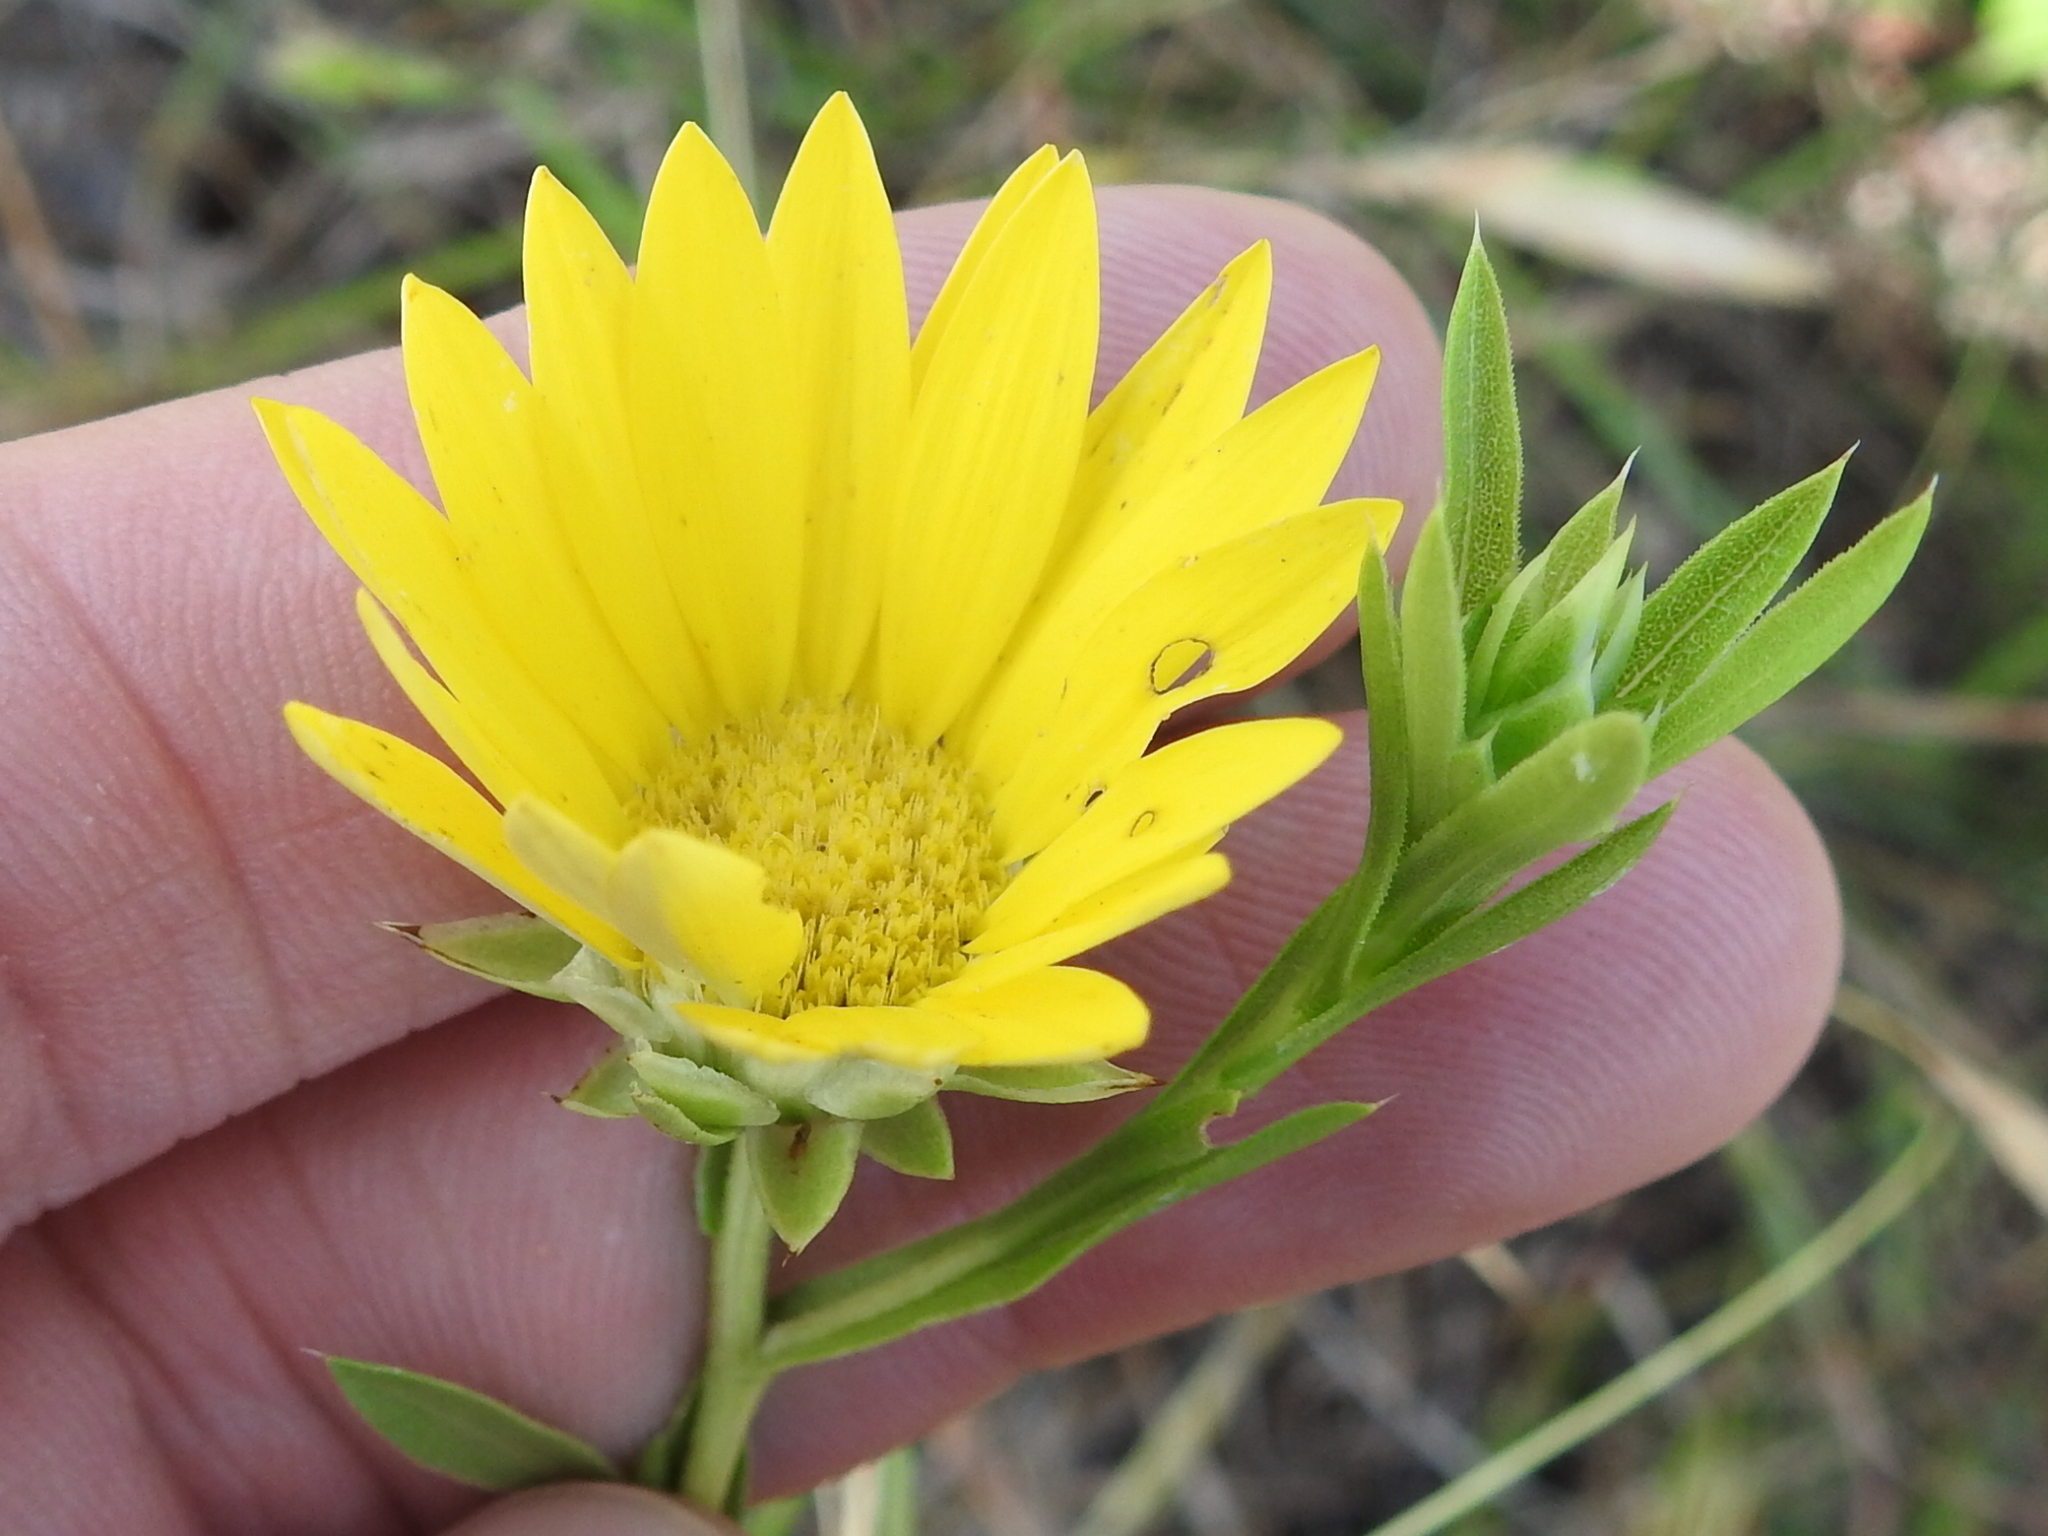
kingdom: Plantae
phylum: Tracheophyta
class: Magnoliopsida
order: Asterales
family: Asteraceae
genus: Xanthisma
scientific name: Xanthisma texanum
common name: Texas sleepy daisy
